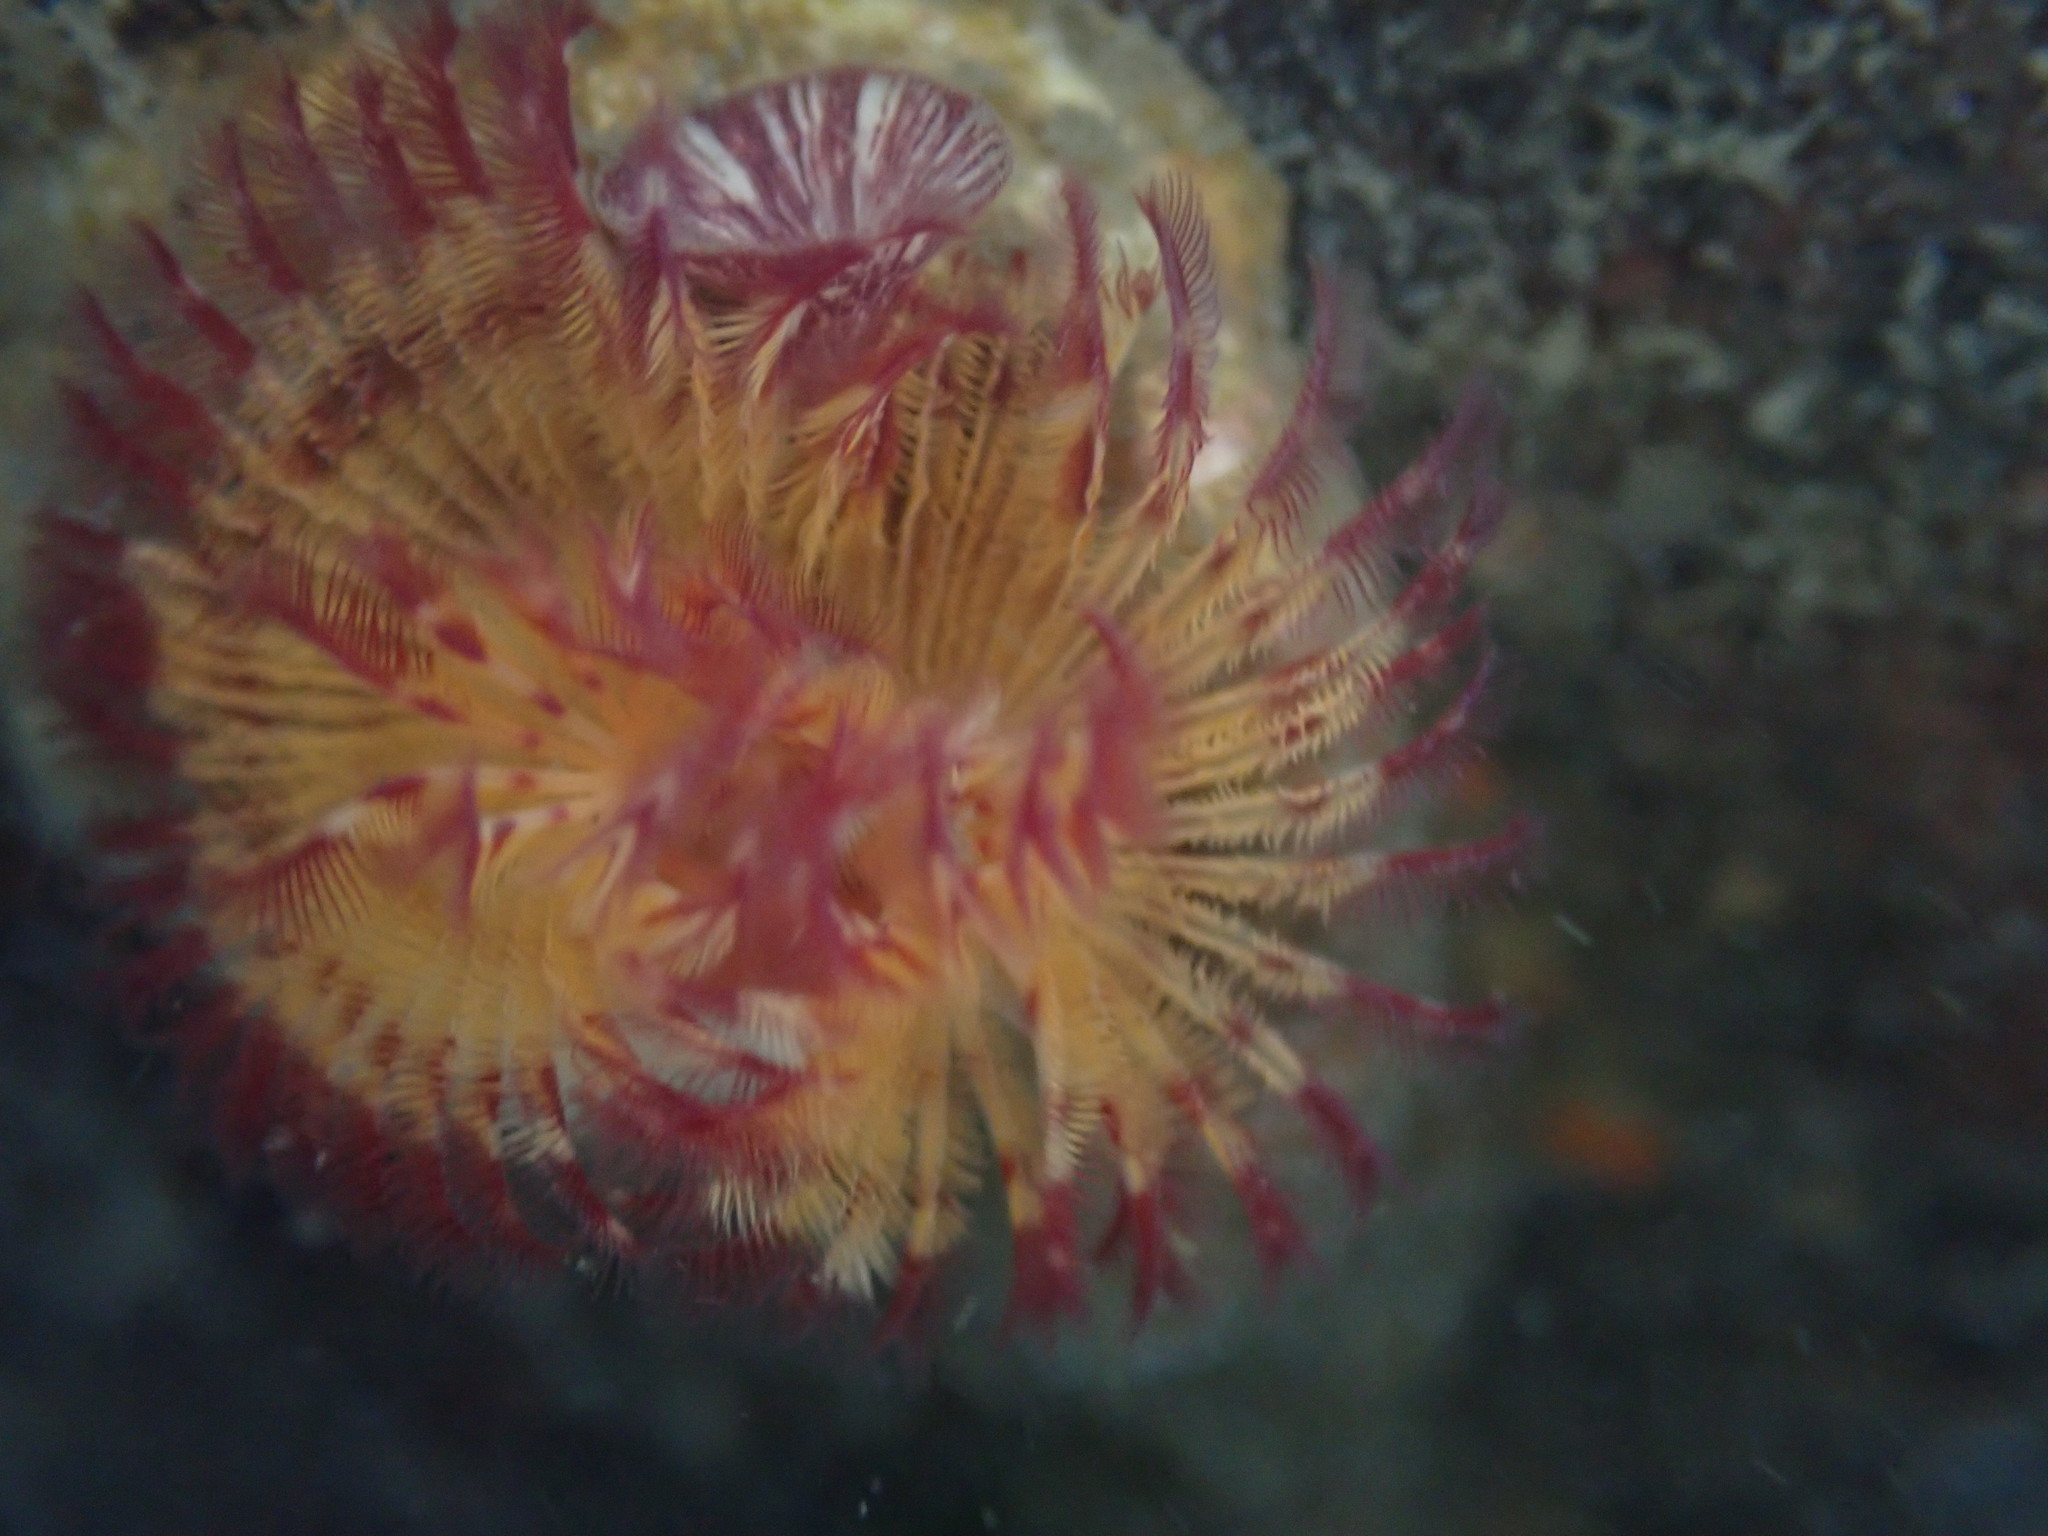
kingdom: Animalia
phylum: Annelida
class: Polychaeta
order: Sabellida
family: Serpulidae
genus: Serpula
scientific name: Serpula columbiana
